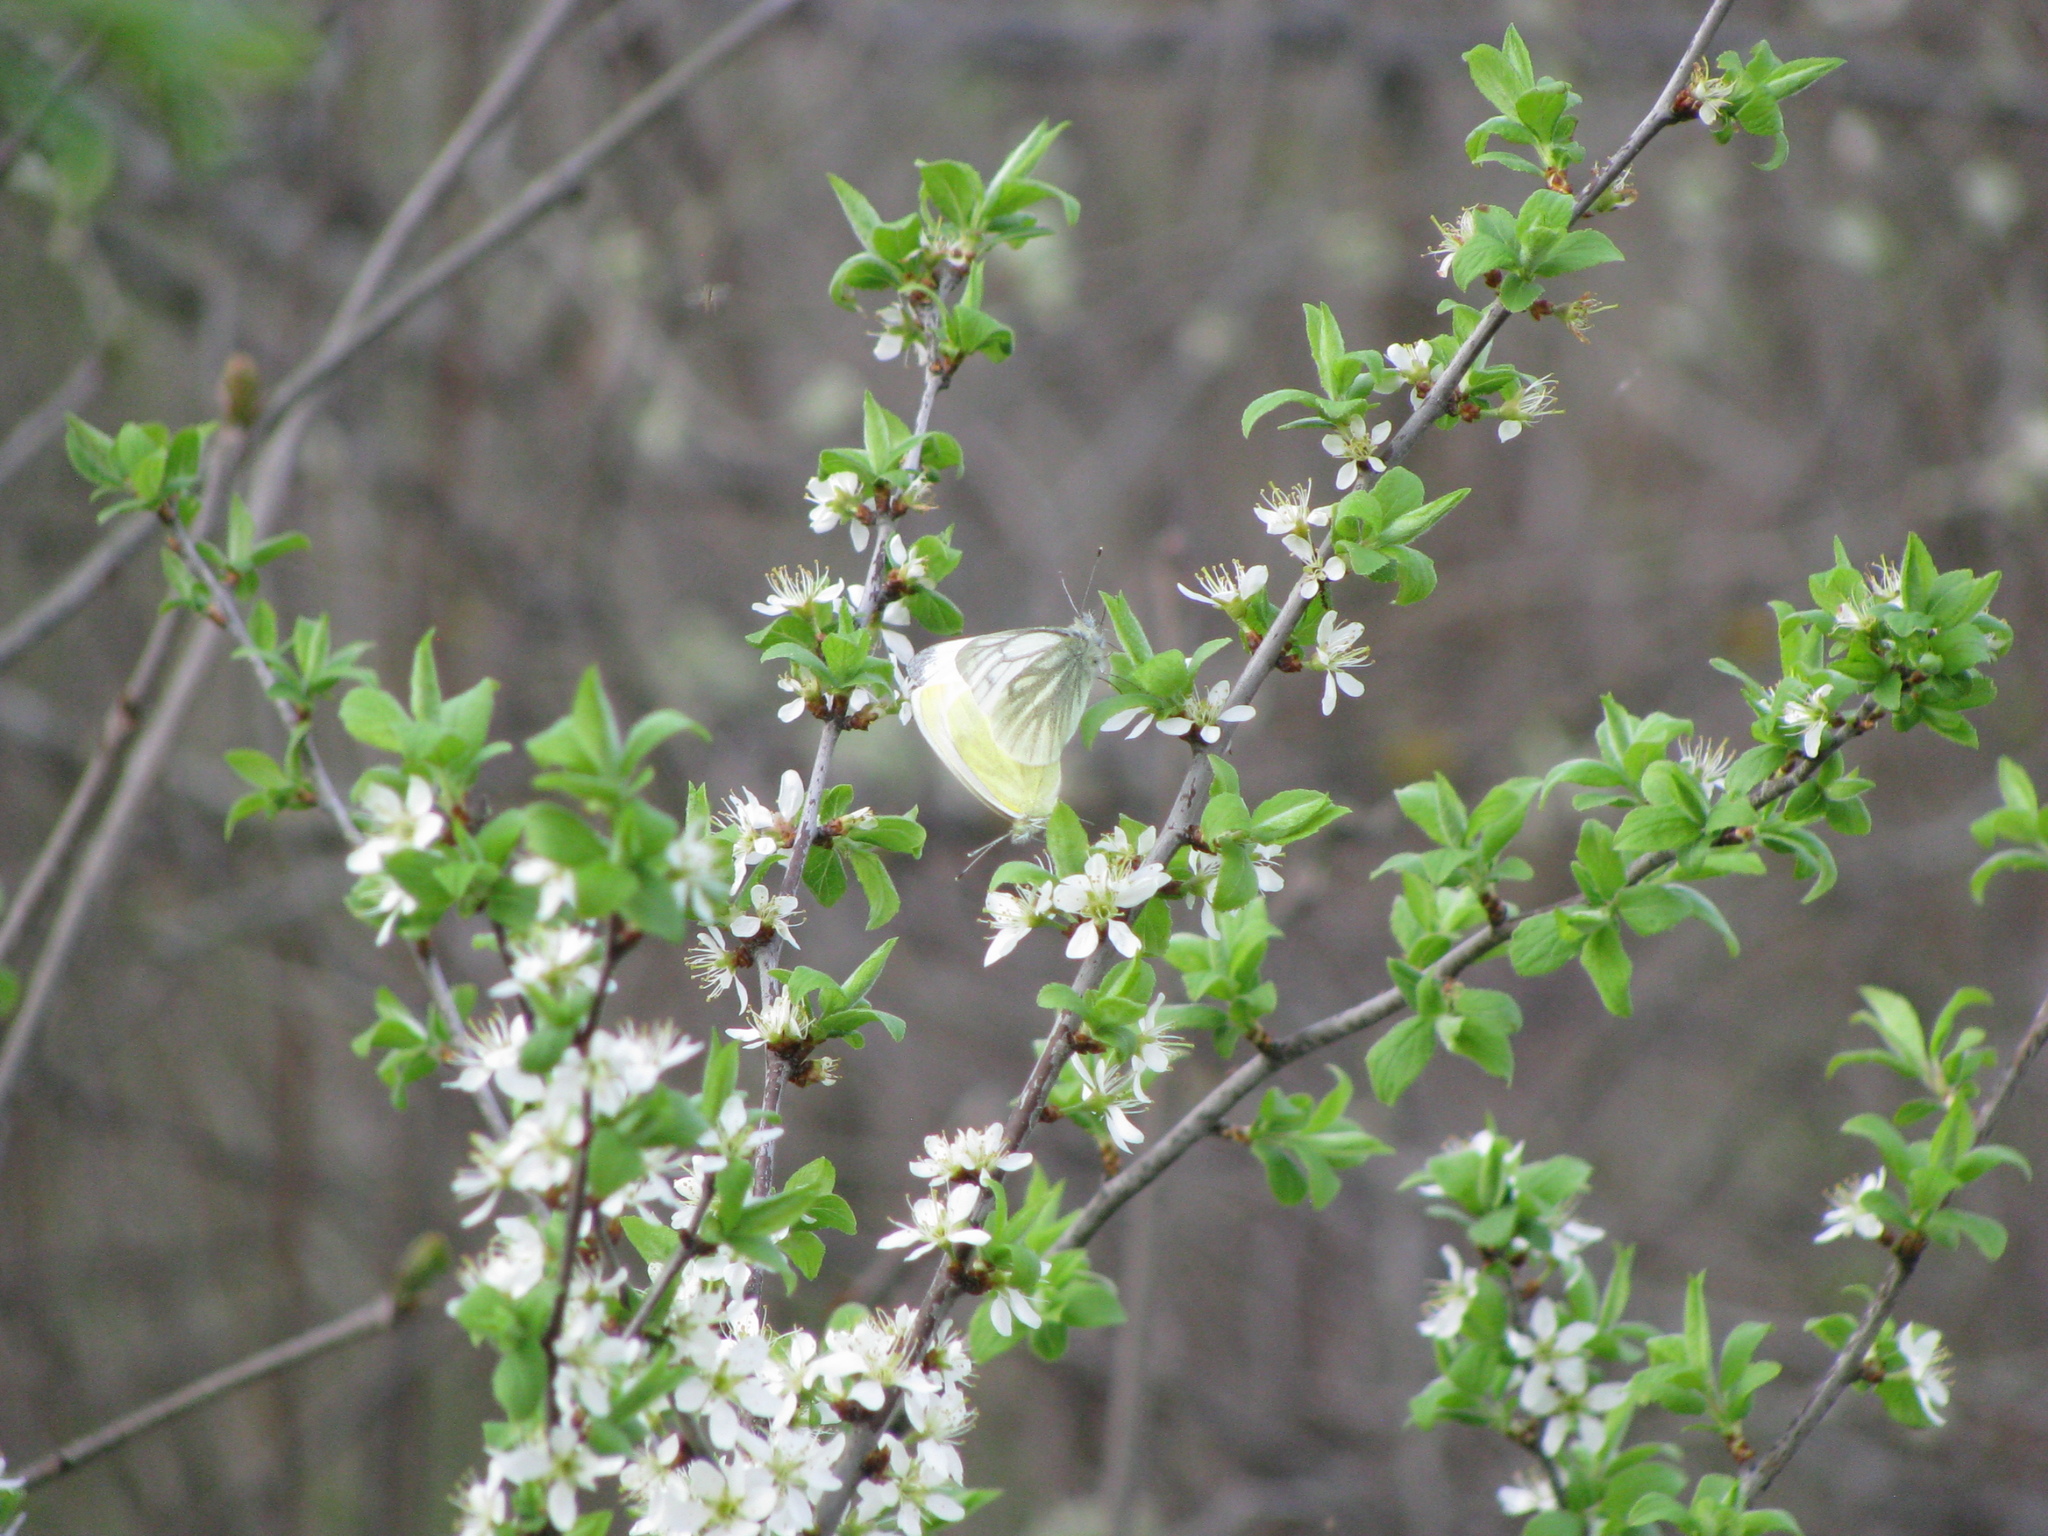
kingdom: Animalia
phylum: Arthropoda
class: Insecta
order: Lepidoptera
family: Pieridae
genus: Pieris
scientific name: Pieris napi
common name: Green-veined white
